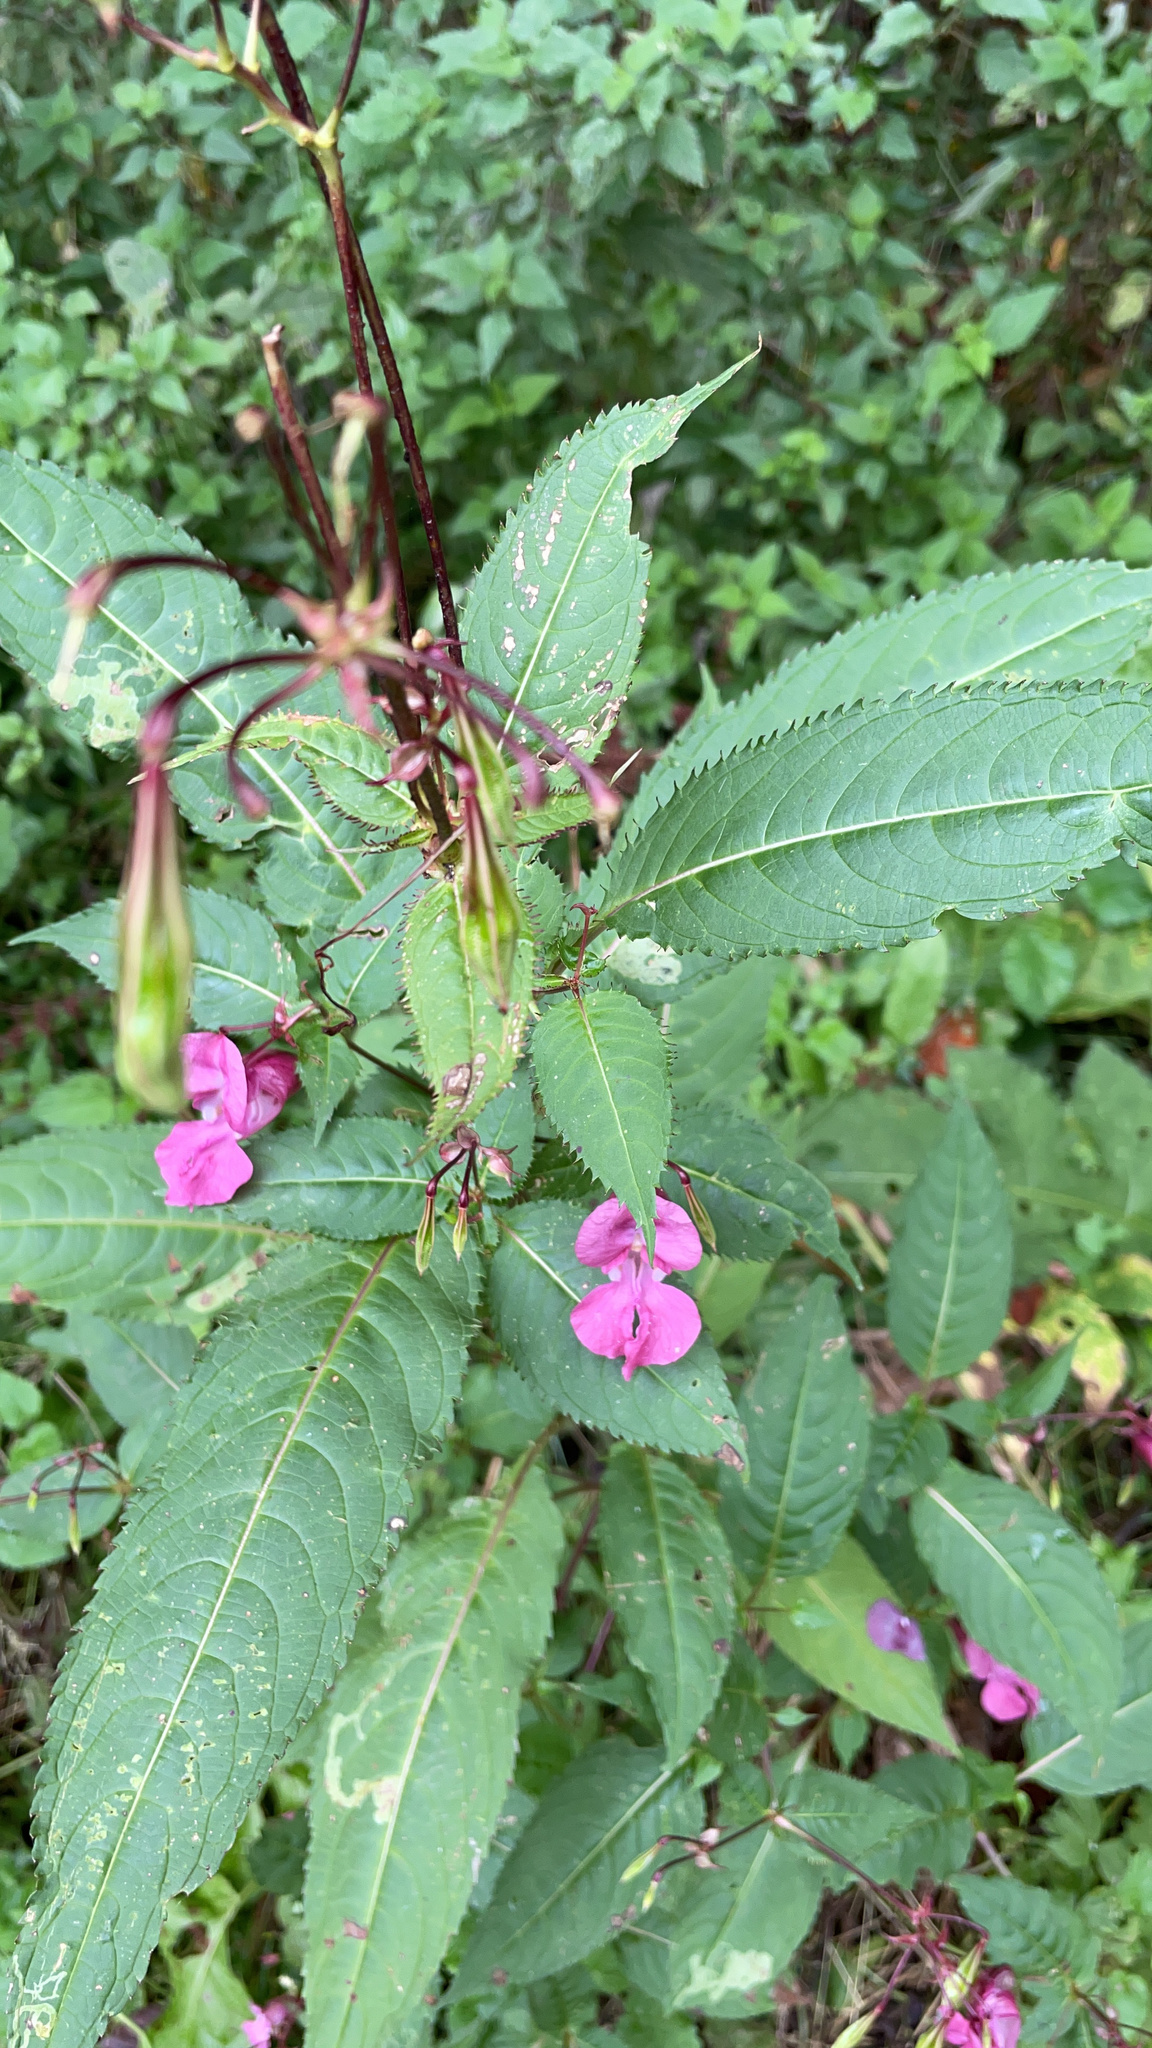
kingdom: Plantae
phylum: Tracheophyta
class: Magnoliopsida
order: Ericales
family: Balsaminaceae
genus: Impatiens
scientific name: Impatiens glandulifera
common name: Himalayan balsam
